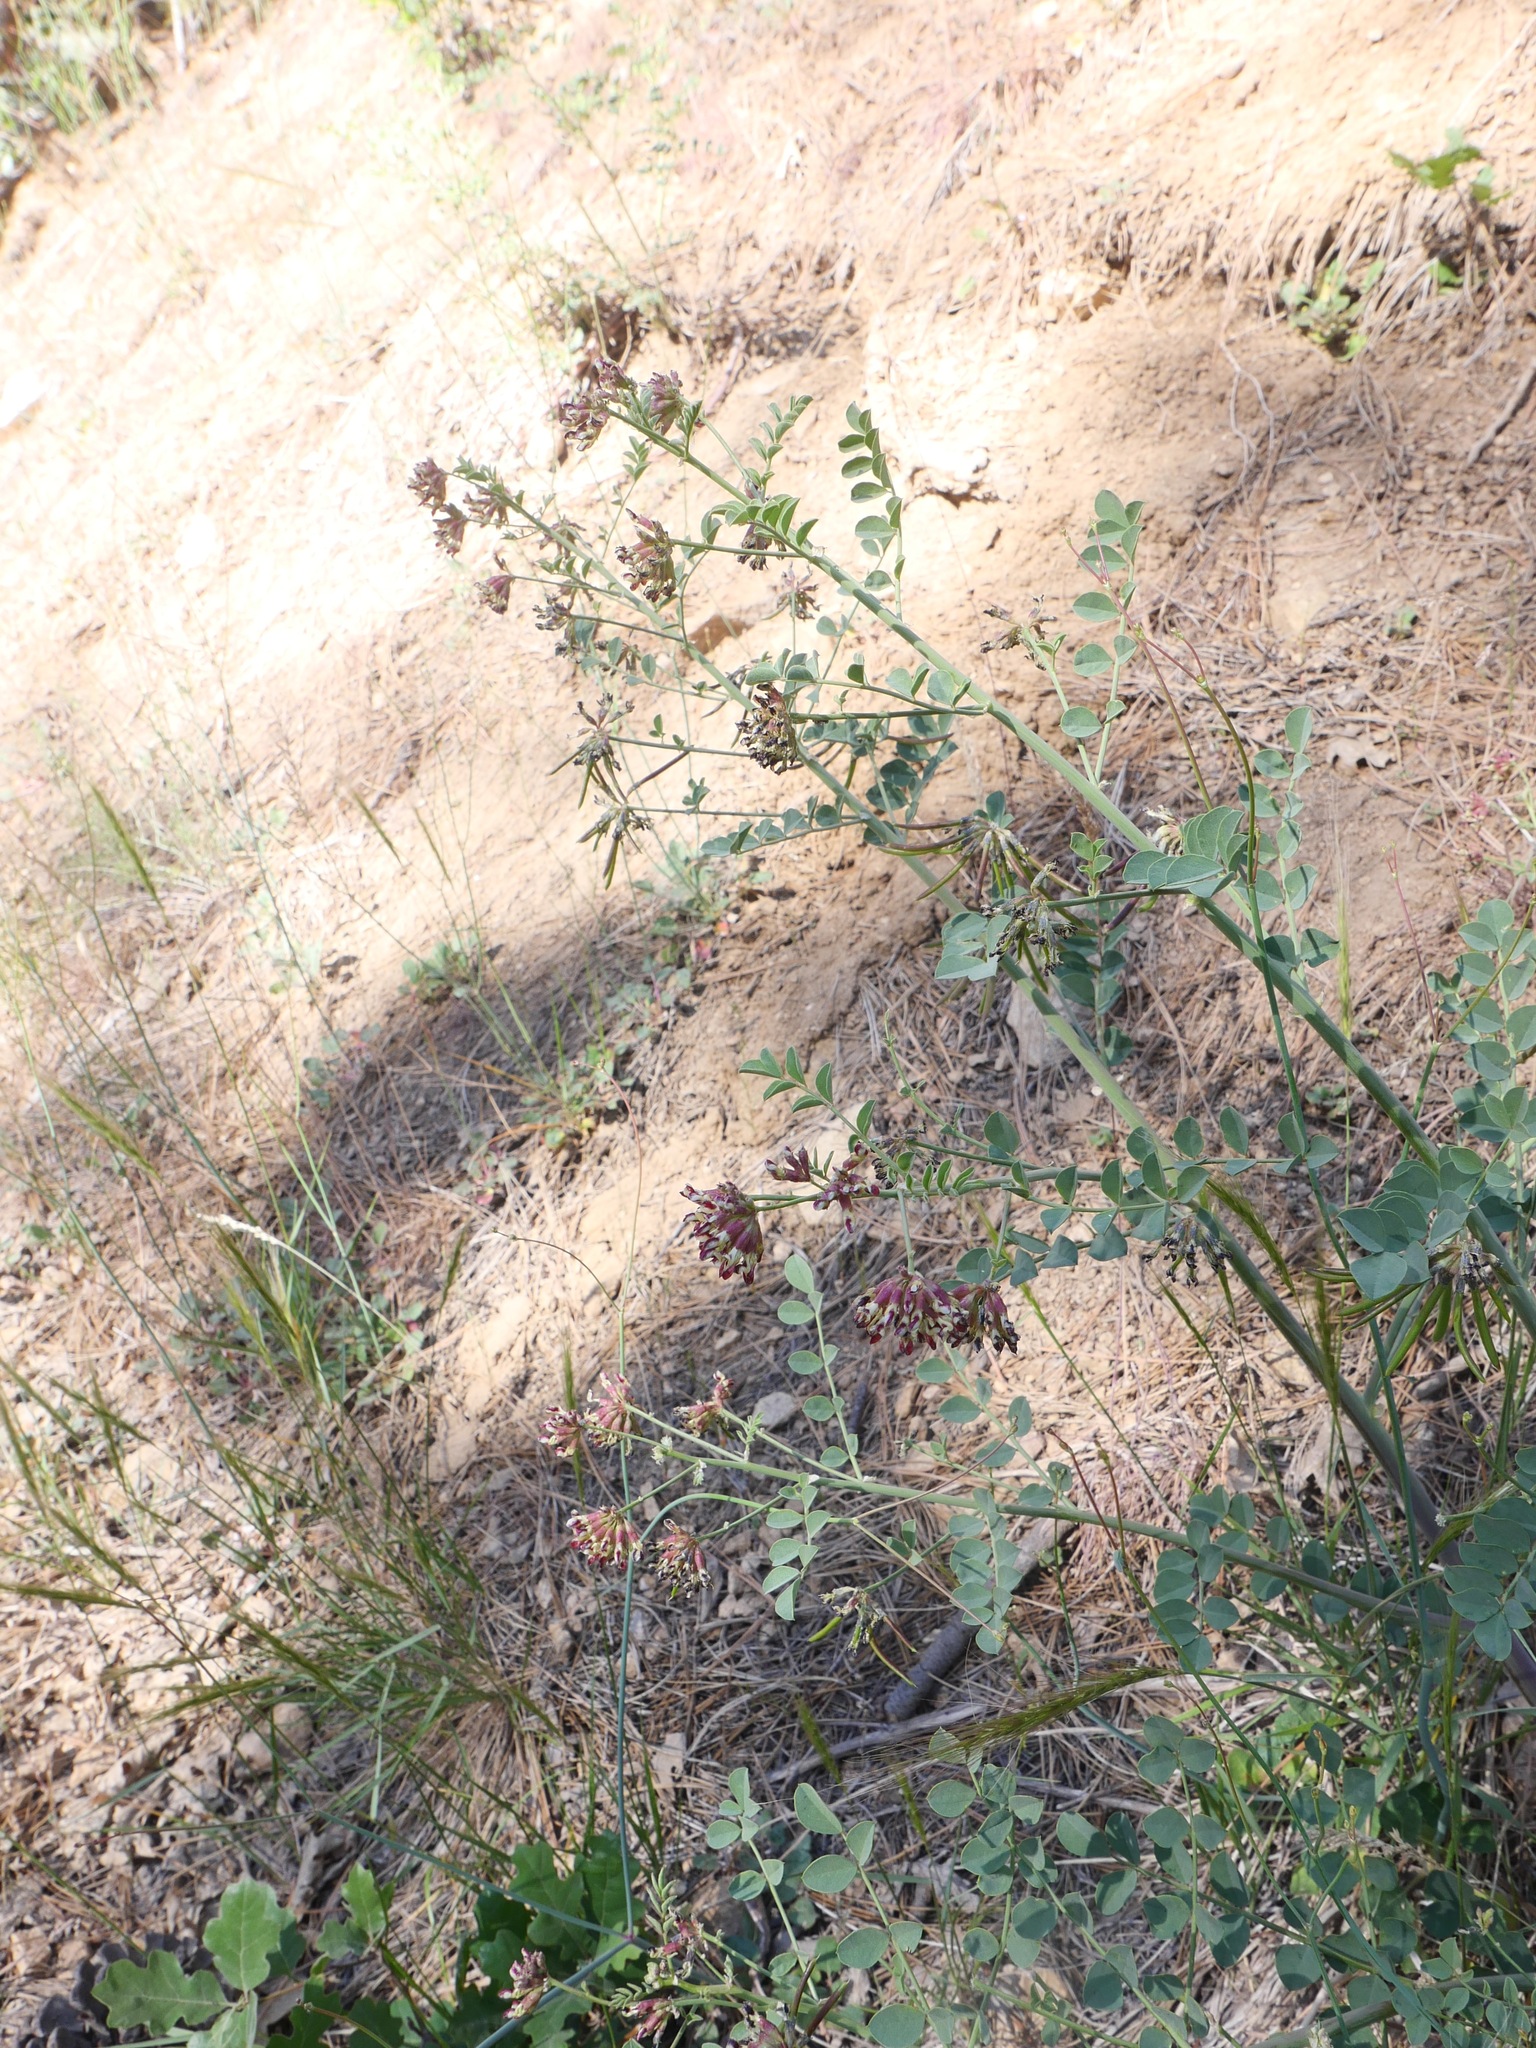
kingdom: Plantae
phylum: Tracheophyta
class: Magnoliopsida
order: Fabales
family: Fabaceae
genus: Hosackia
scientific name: Hosackia crassifolia
